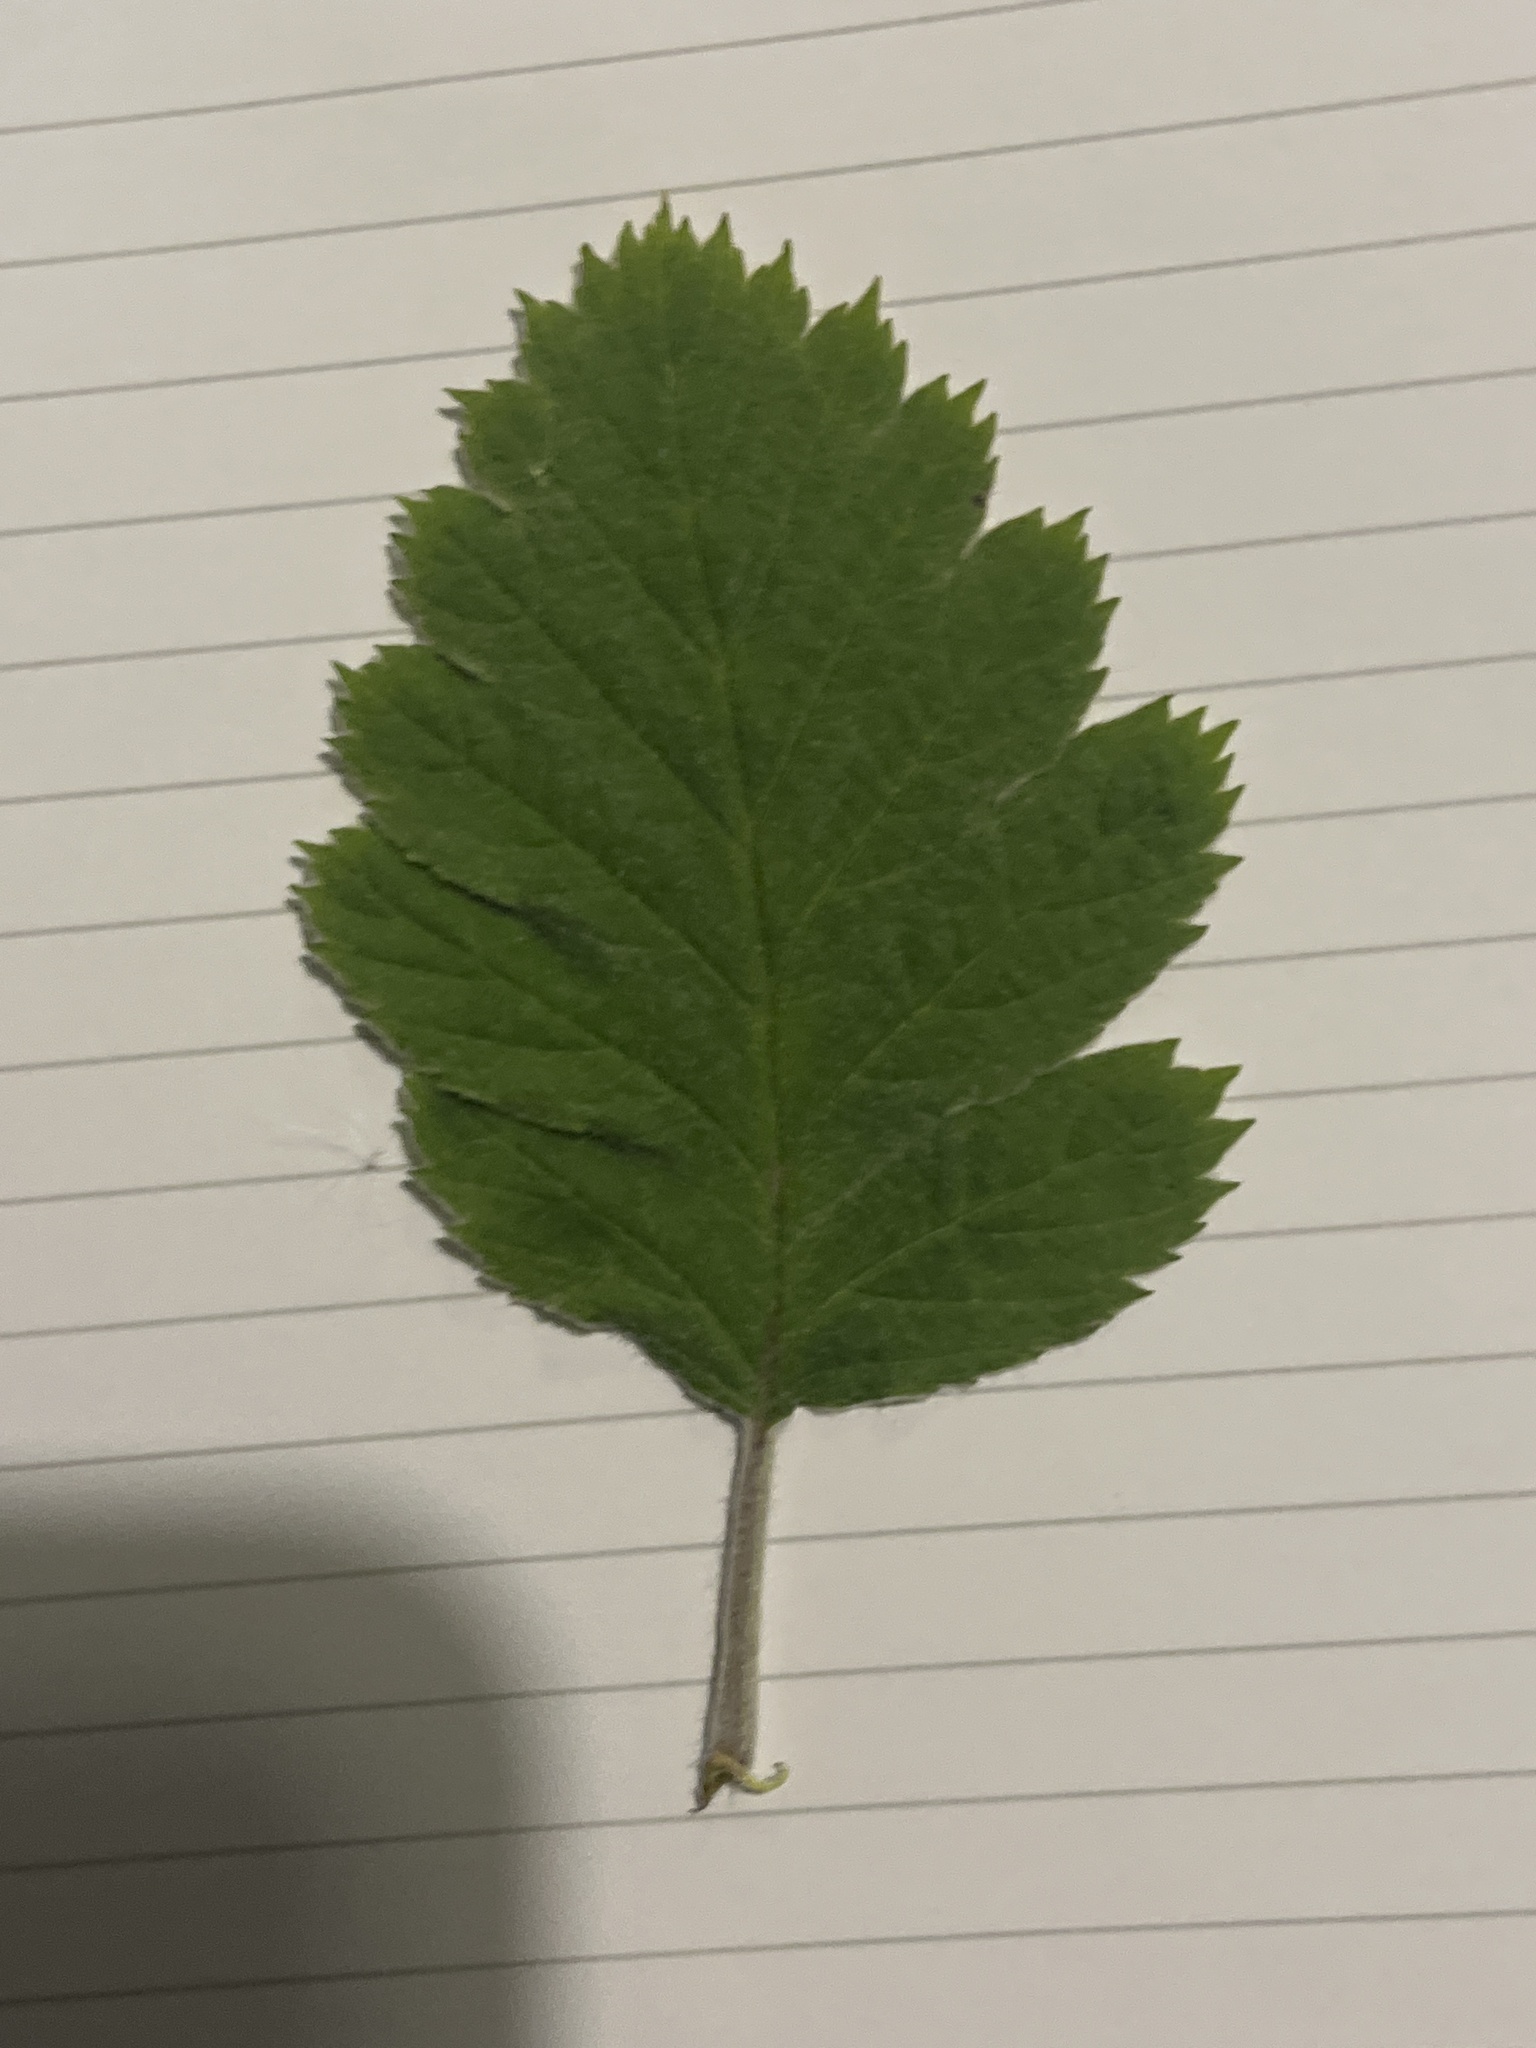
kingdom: Plantae
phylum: Tracheophyta
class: Magnoliopsida
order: Rosales
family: Rosaceae
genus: Scandosorbus
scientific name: Scandosorbus intermedia
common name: Swedish whitebeam
